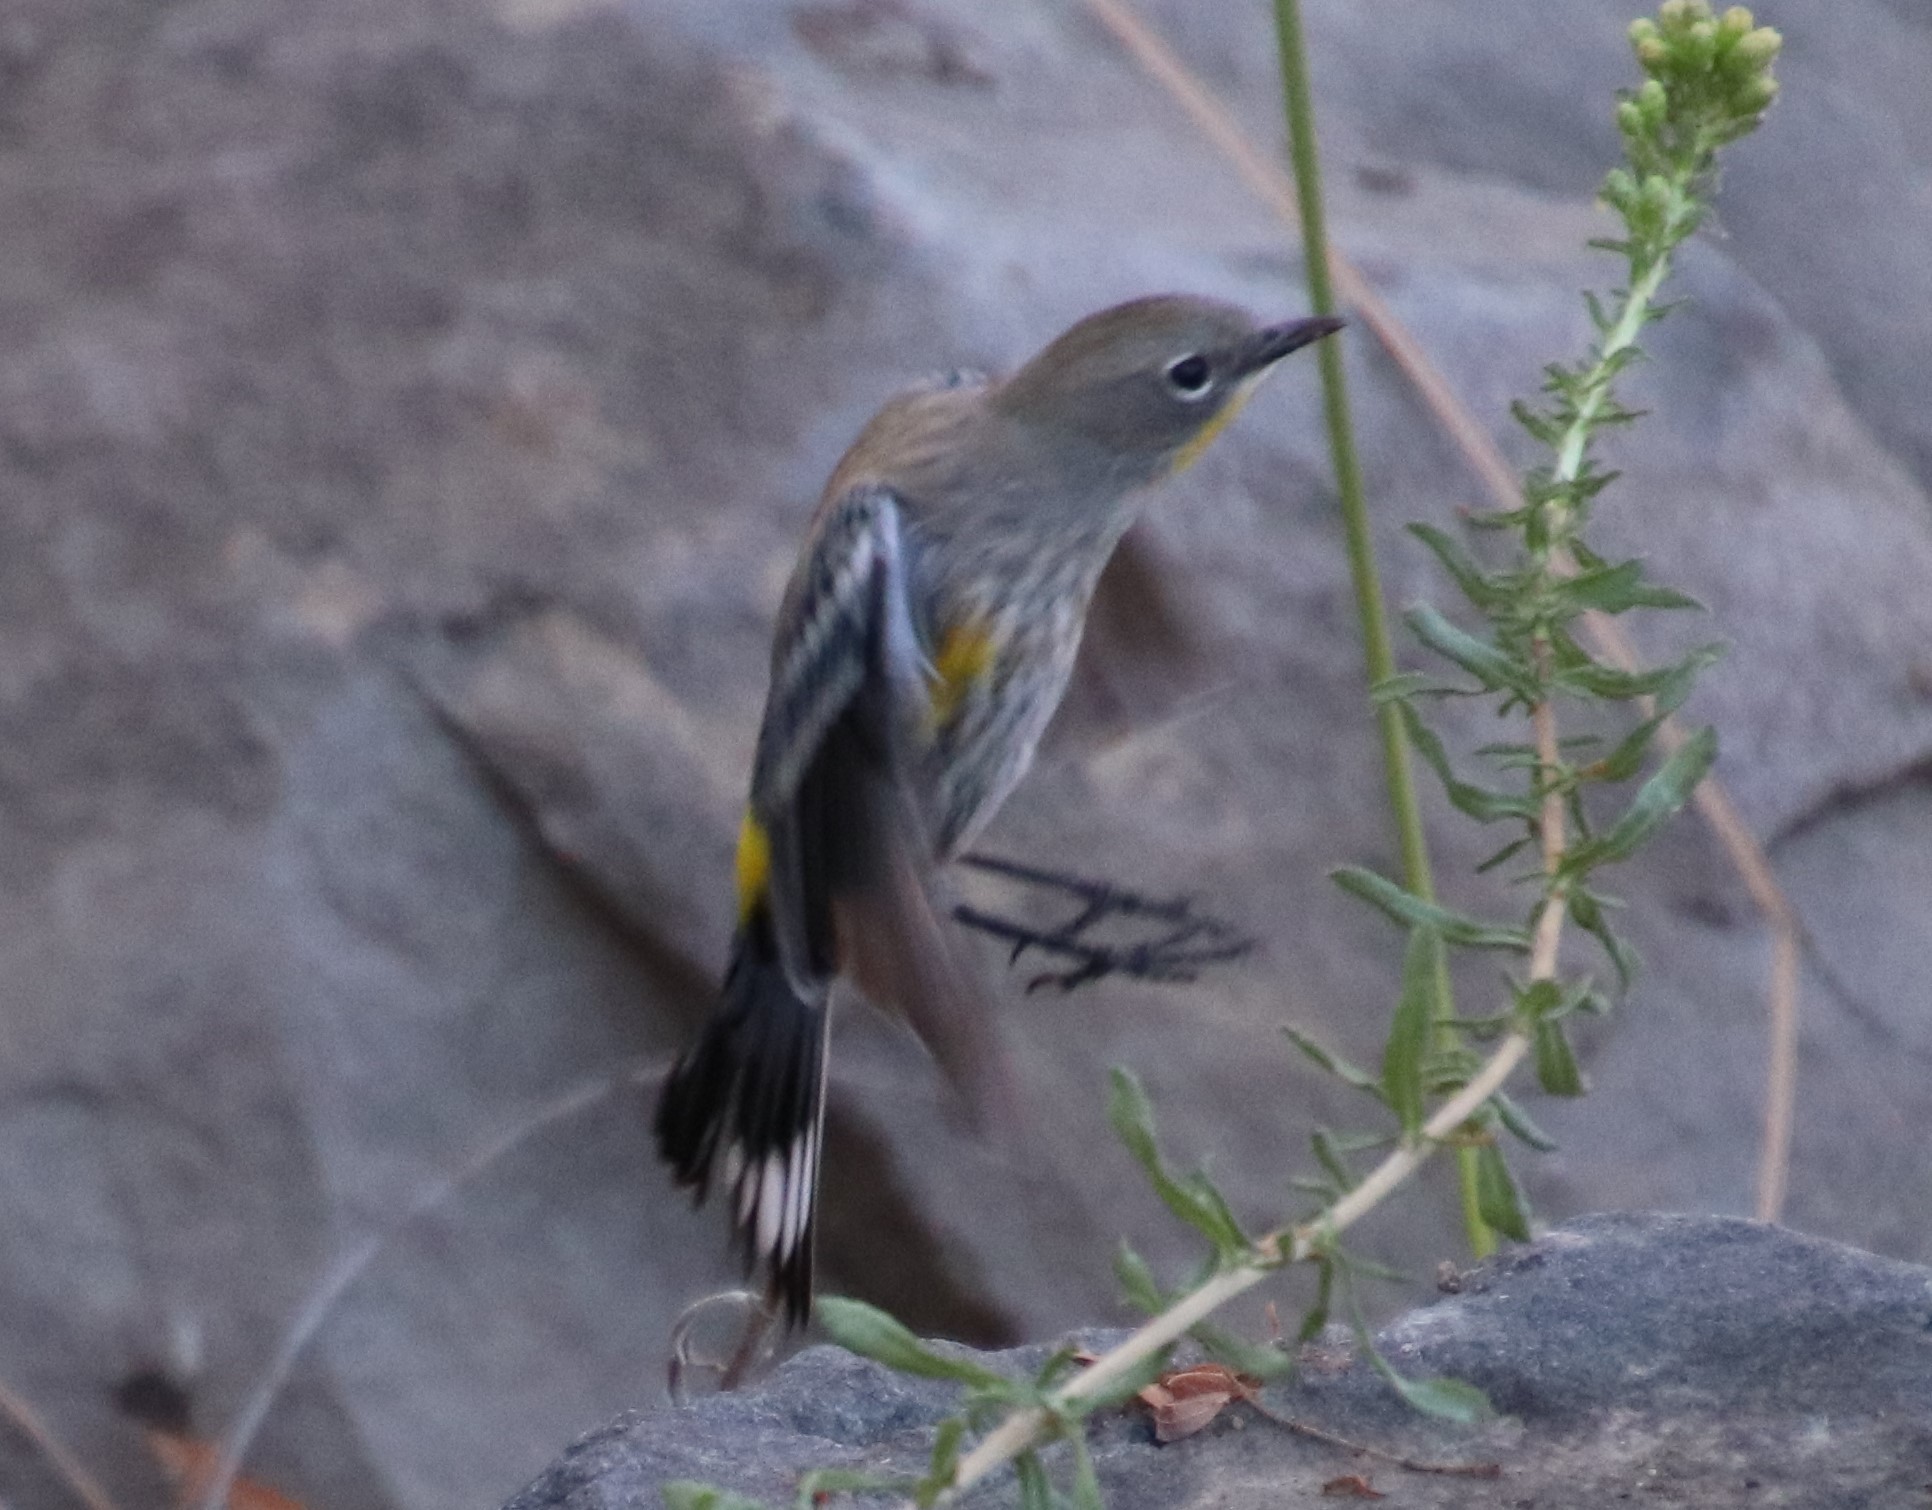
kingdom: Animalia
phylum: Chordata
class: Aves
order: Passeriformes
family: Parulidae
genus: Setophaga
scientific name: Setophaga auduboni
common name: Audubon's warbler
